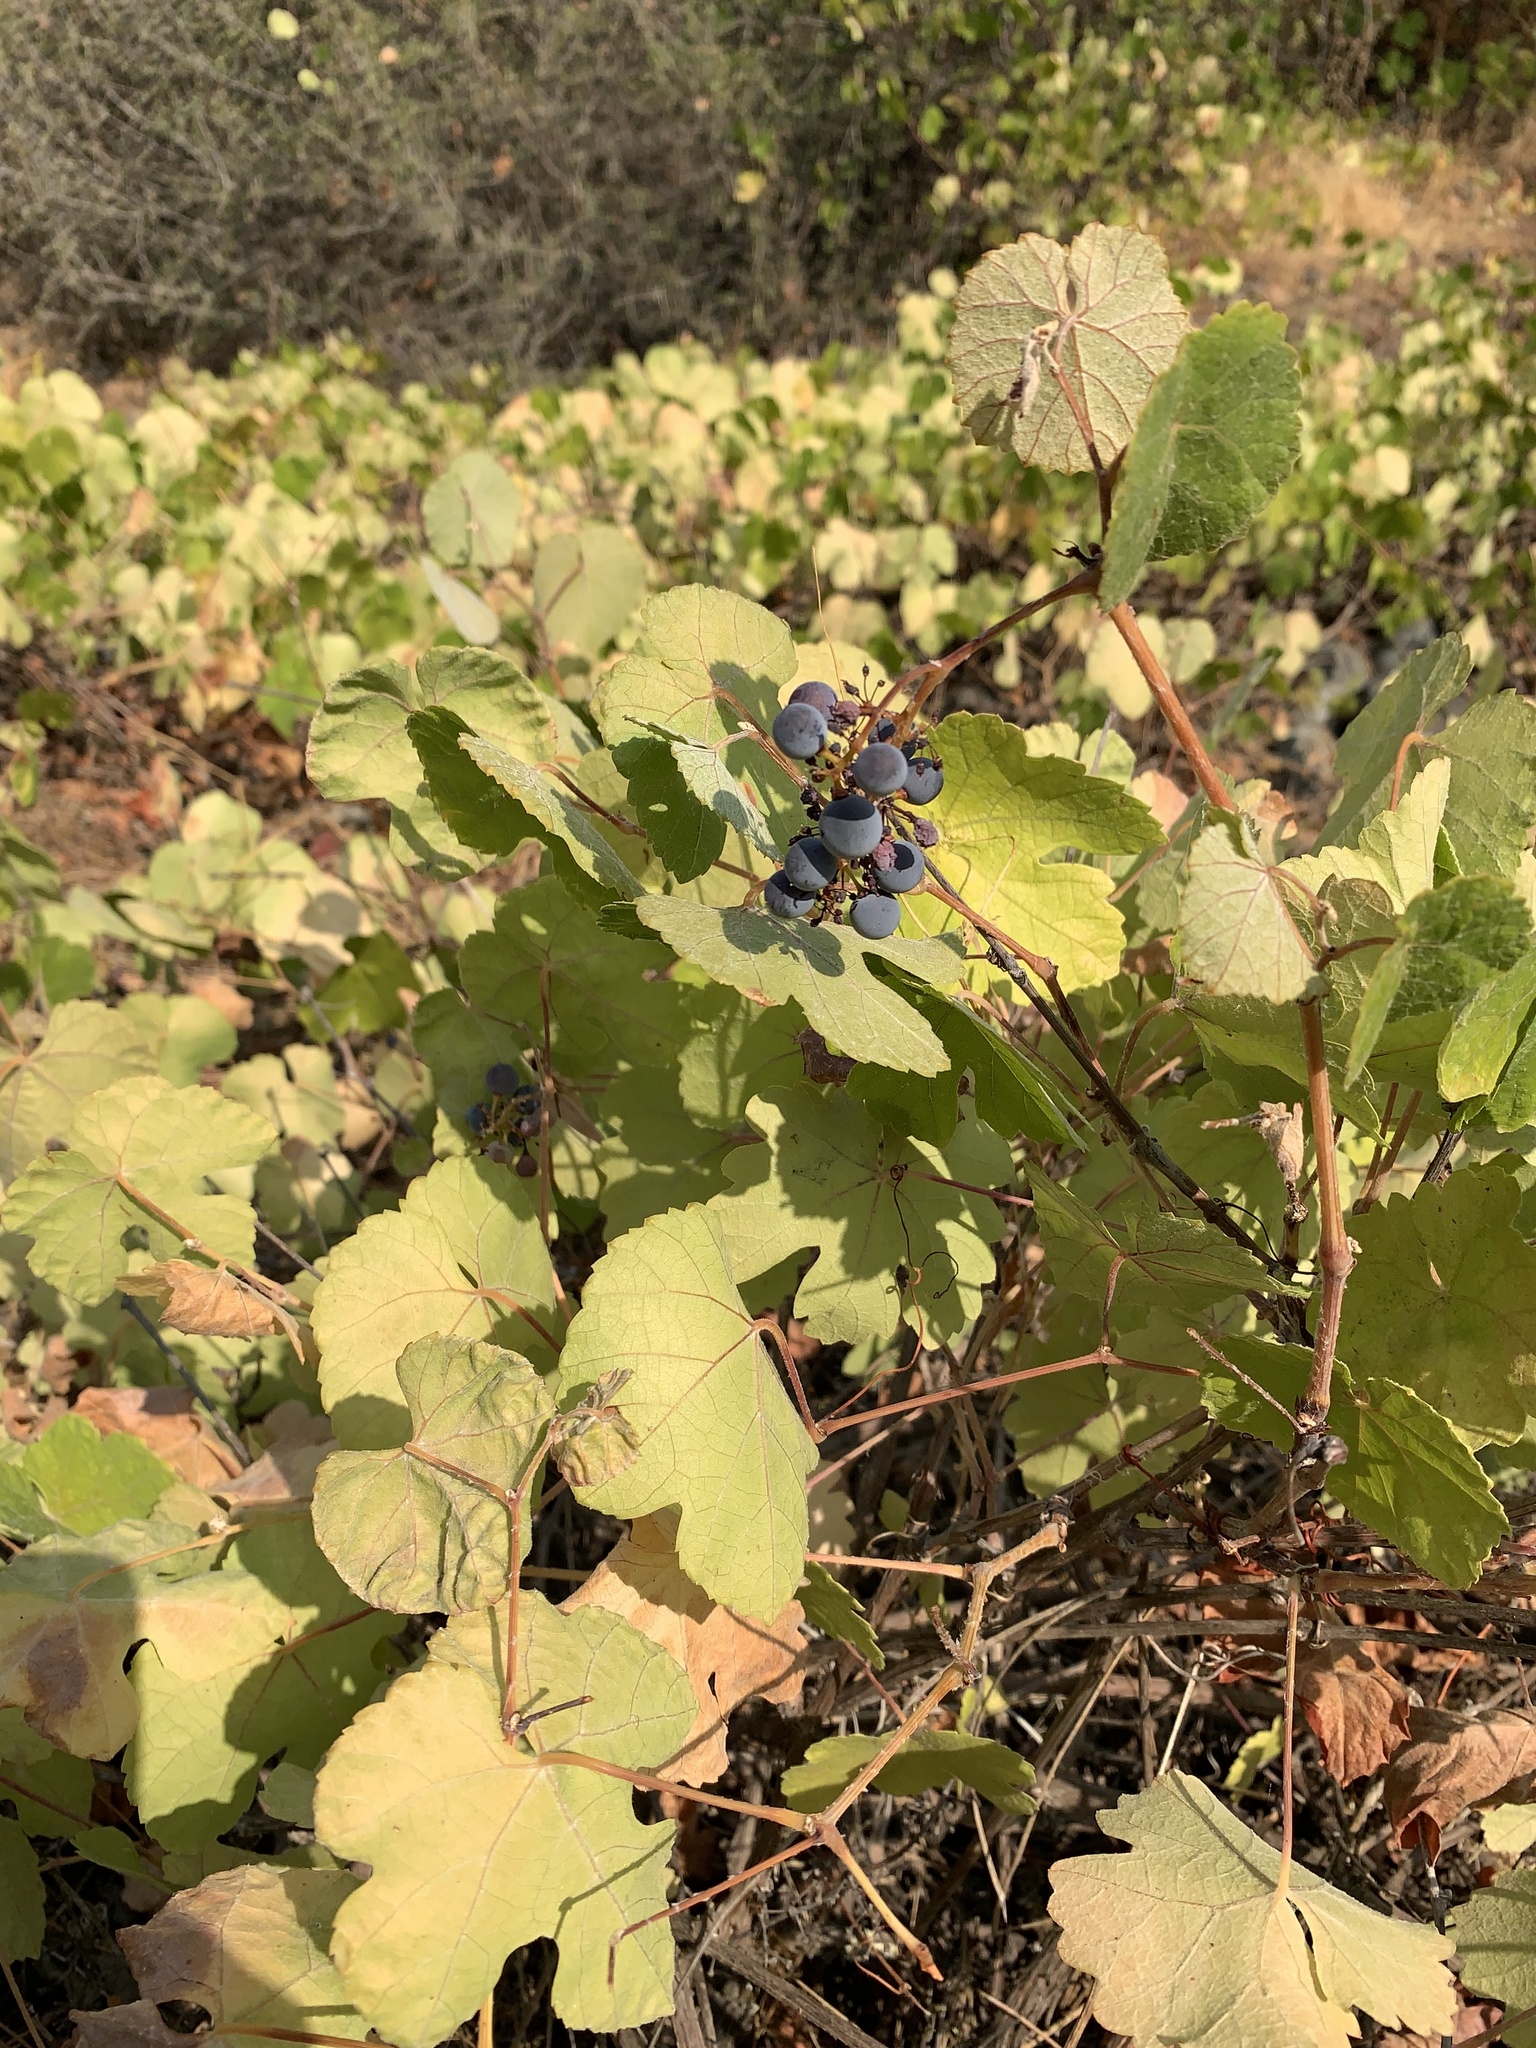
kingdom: Plantae
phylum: Tracheophyta
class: Magnoliopsida
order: Vitales
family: Vitaceae
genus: Vitis
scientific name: Vitis californica
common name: California wild grape
